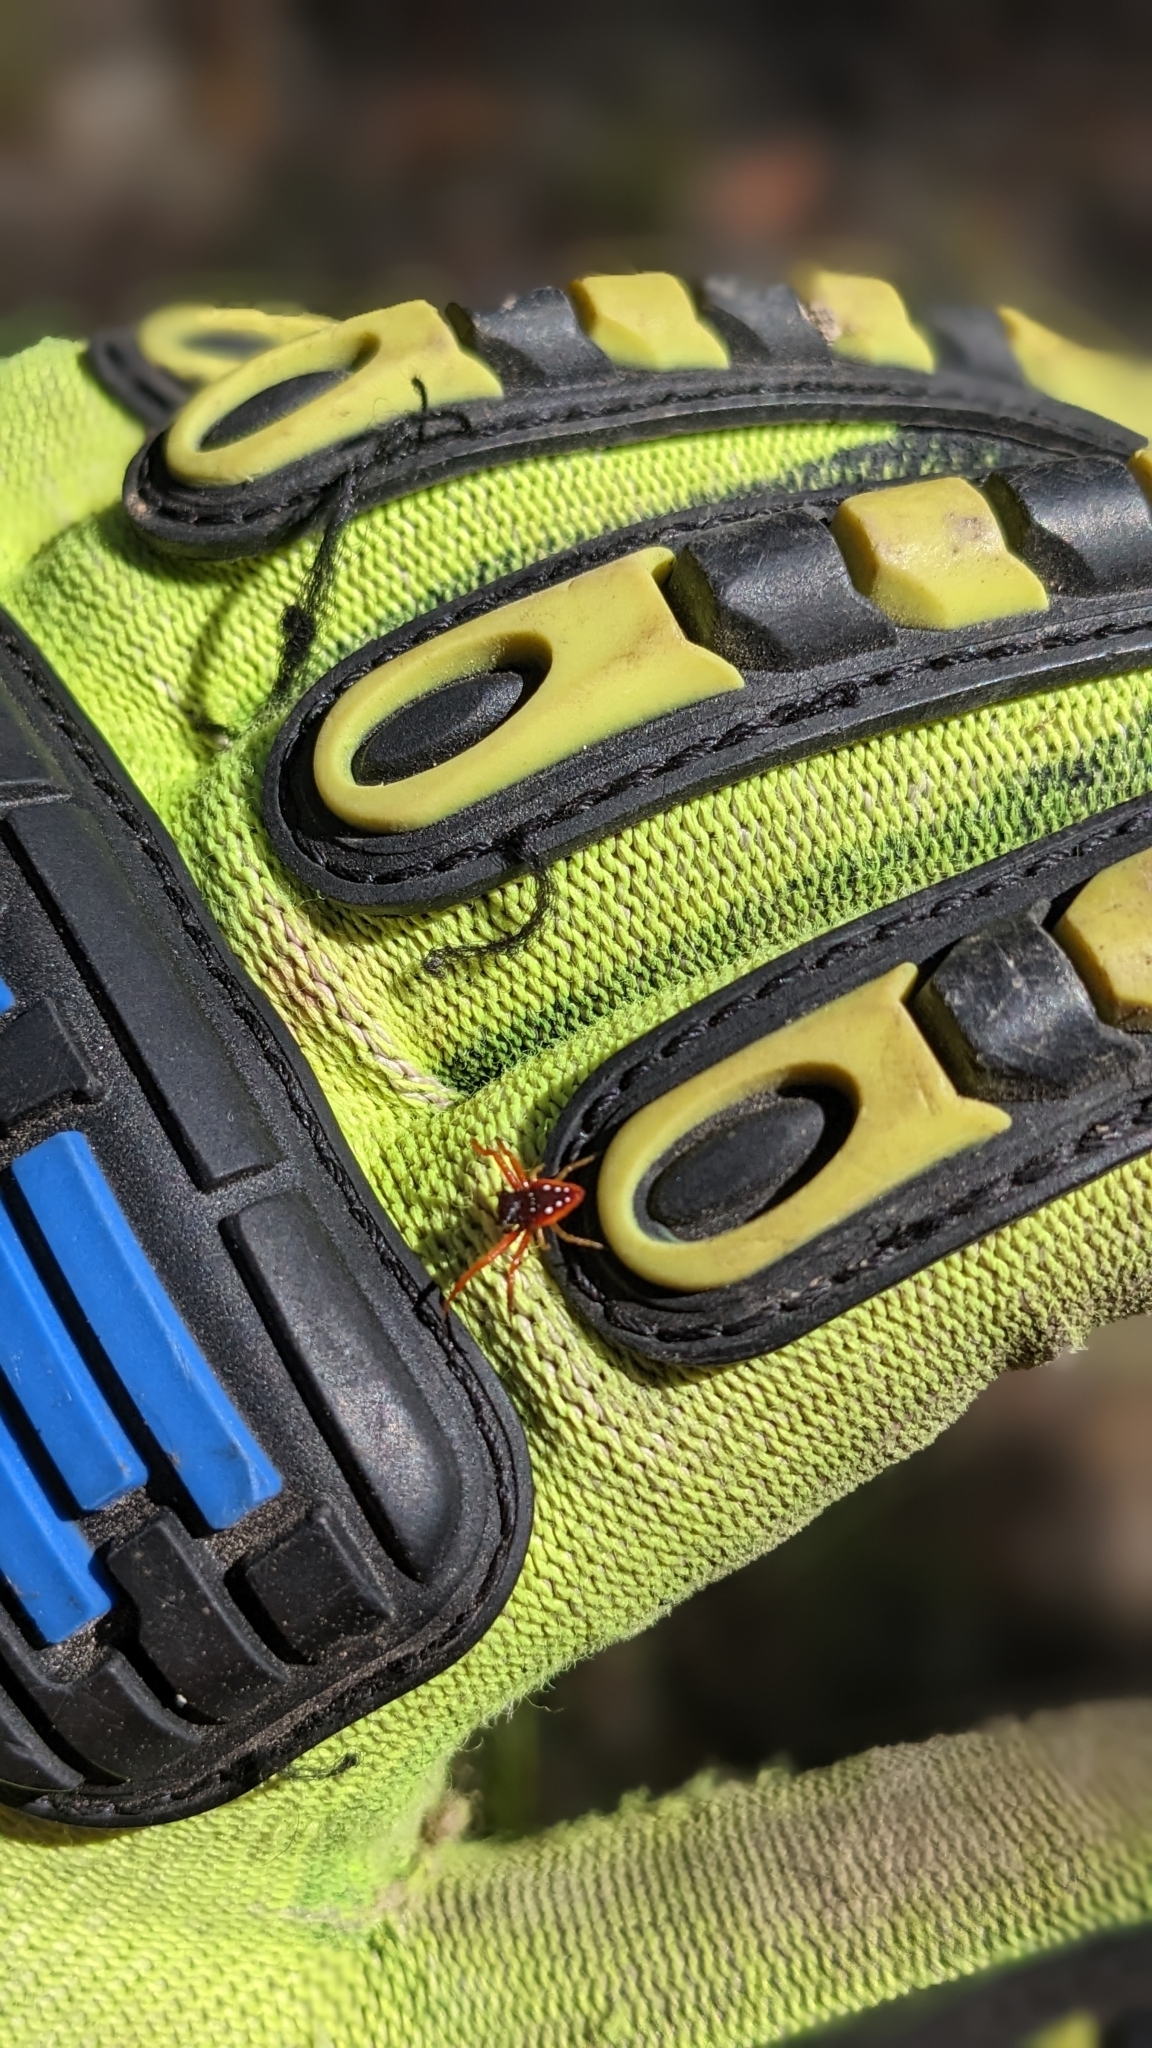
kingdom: Animalia
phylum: Arthropoda
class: Arachnida
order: Araneae
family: Arkyidae
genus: Arkys
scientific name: Arkys cornutus
